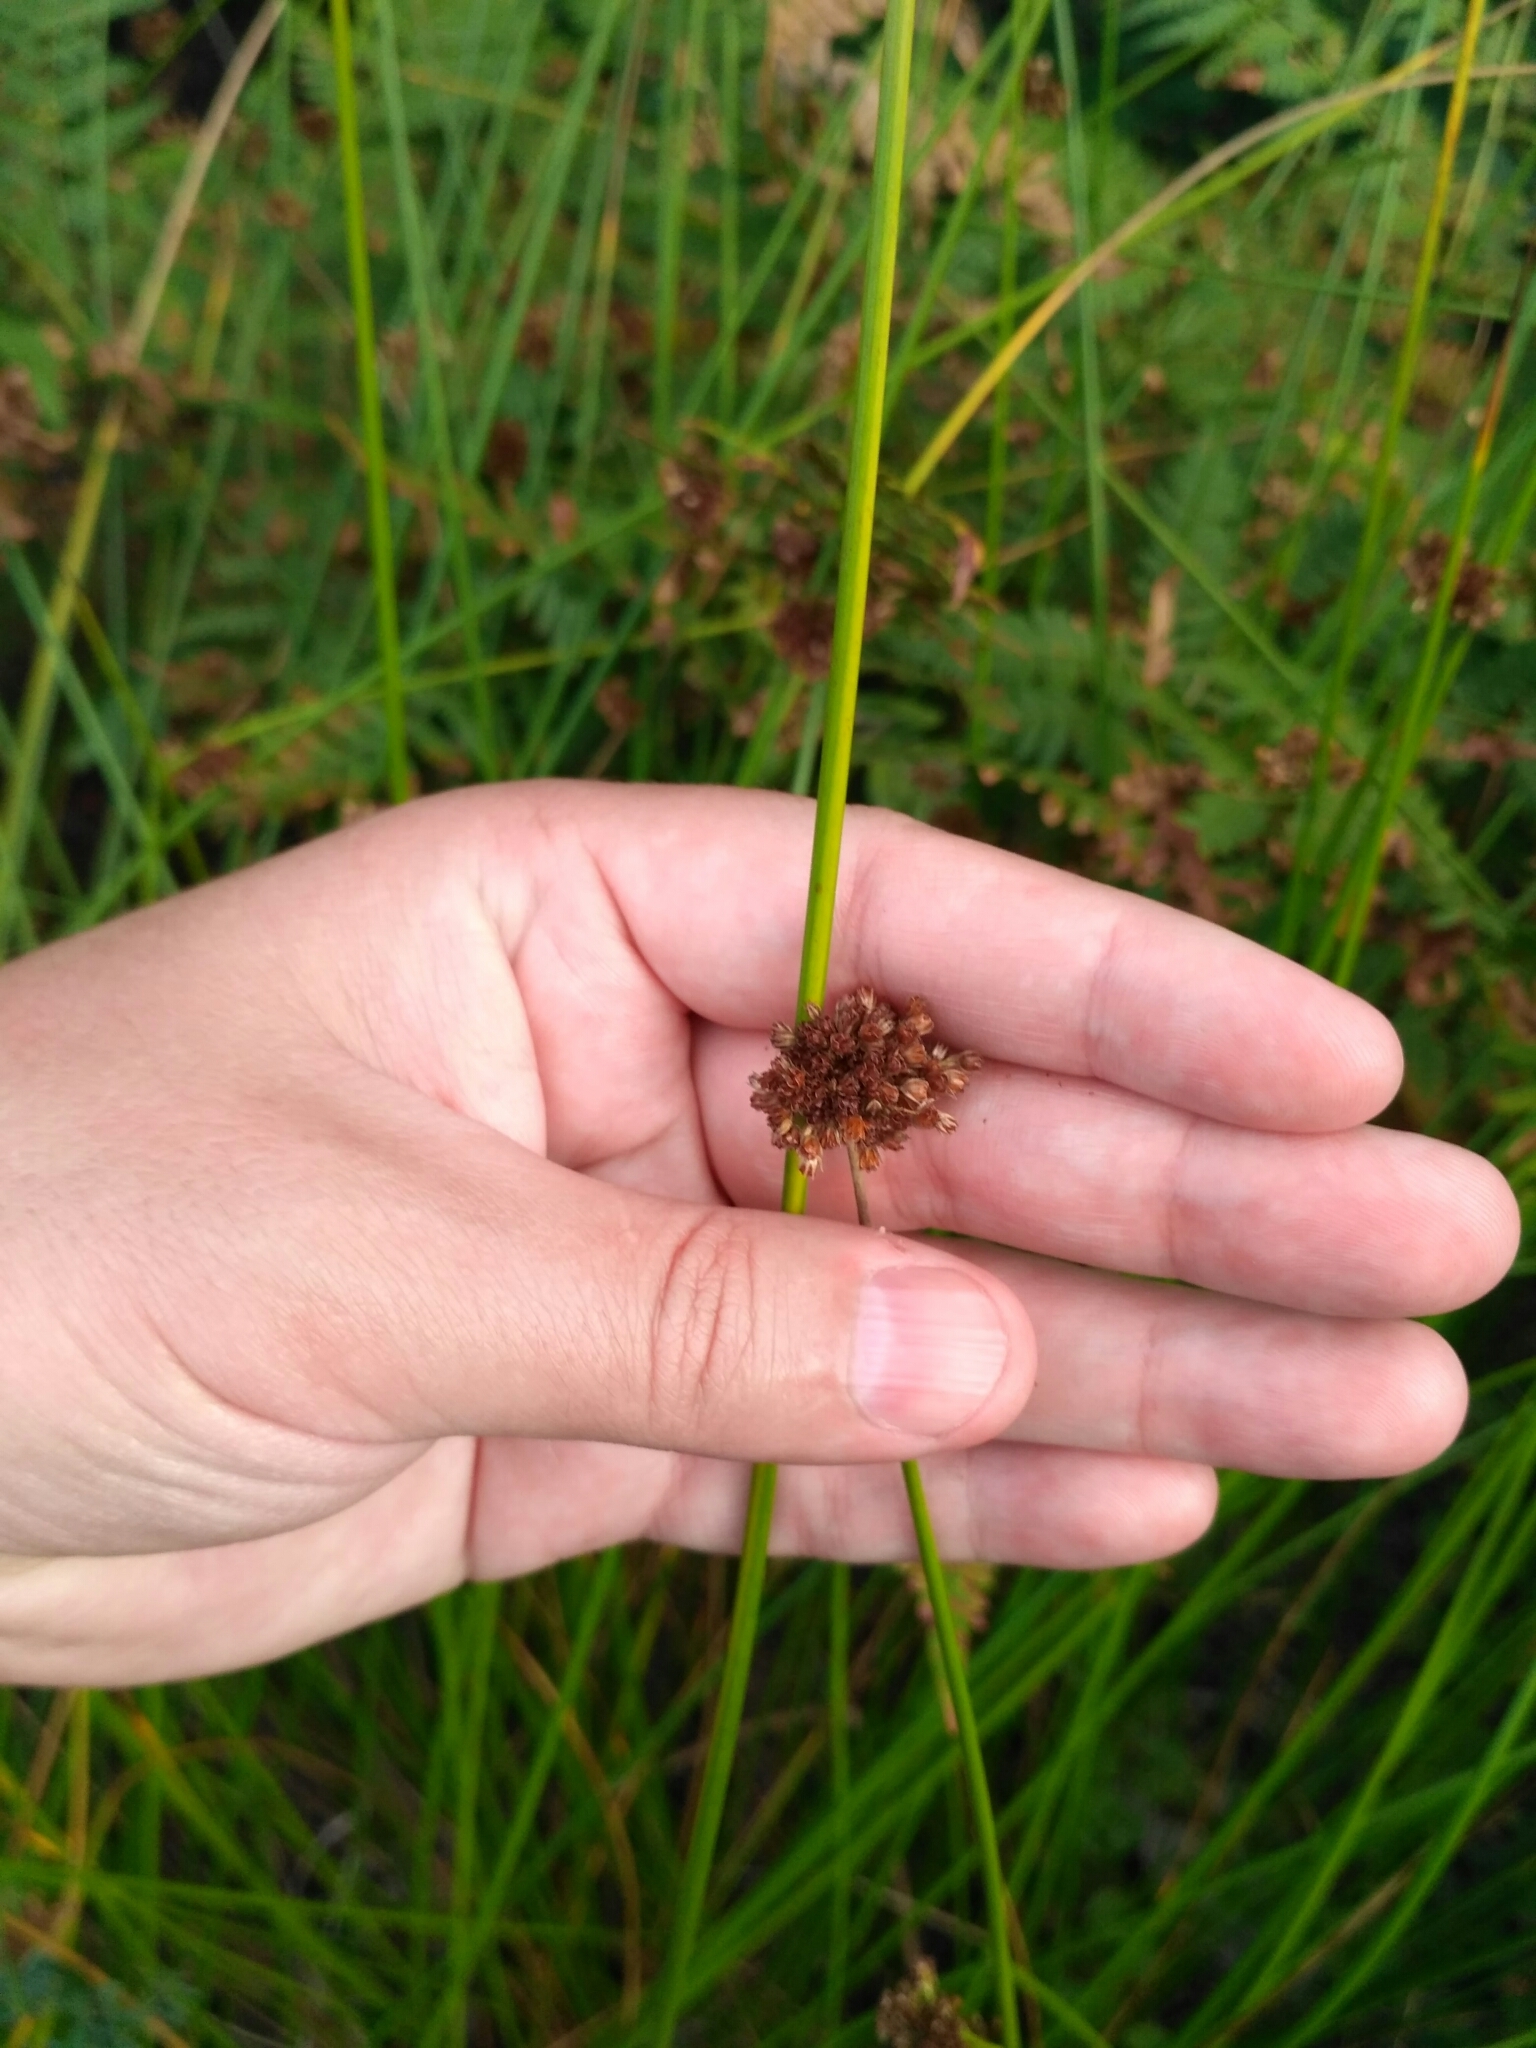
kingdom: Plantae
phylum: Tracheophyta
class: Liliopsida
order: Poales
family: Juncaceae
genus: Juncus
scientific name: Juncus effusus
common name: Soft rush
